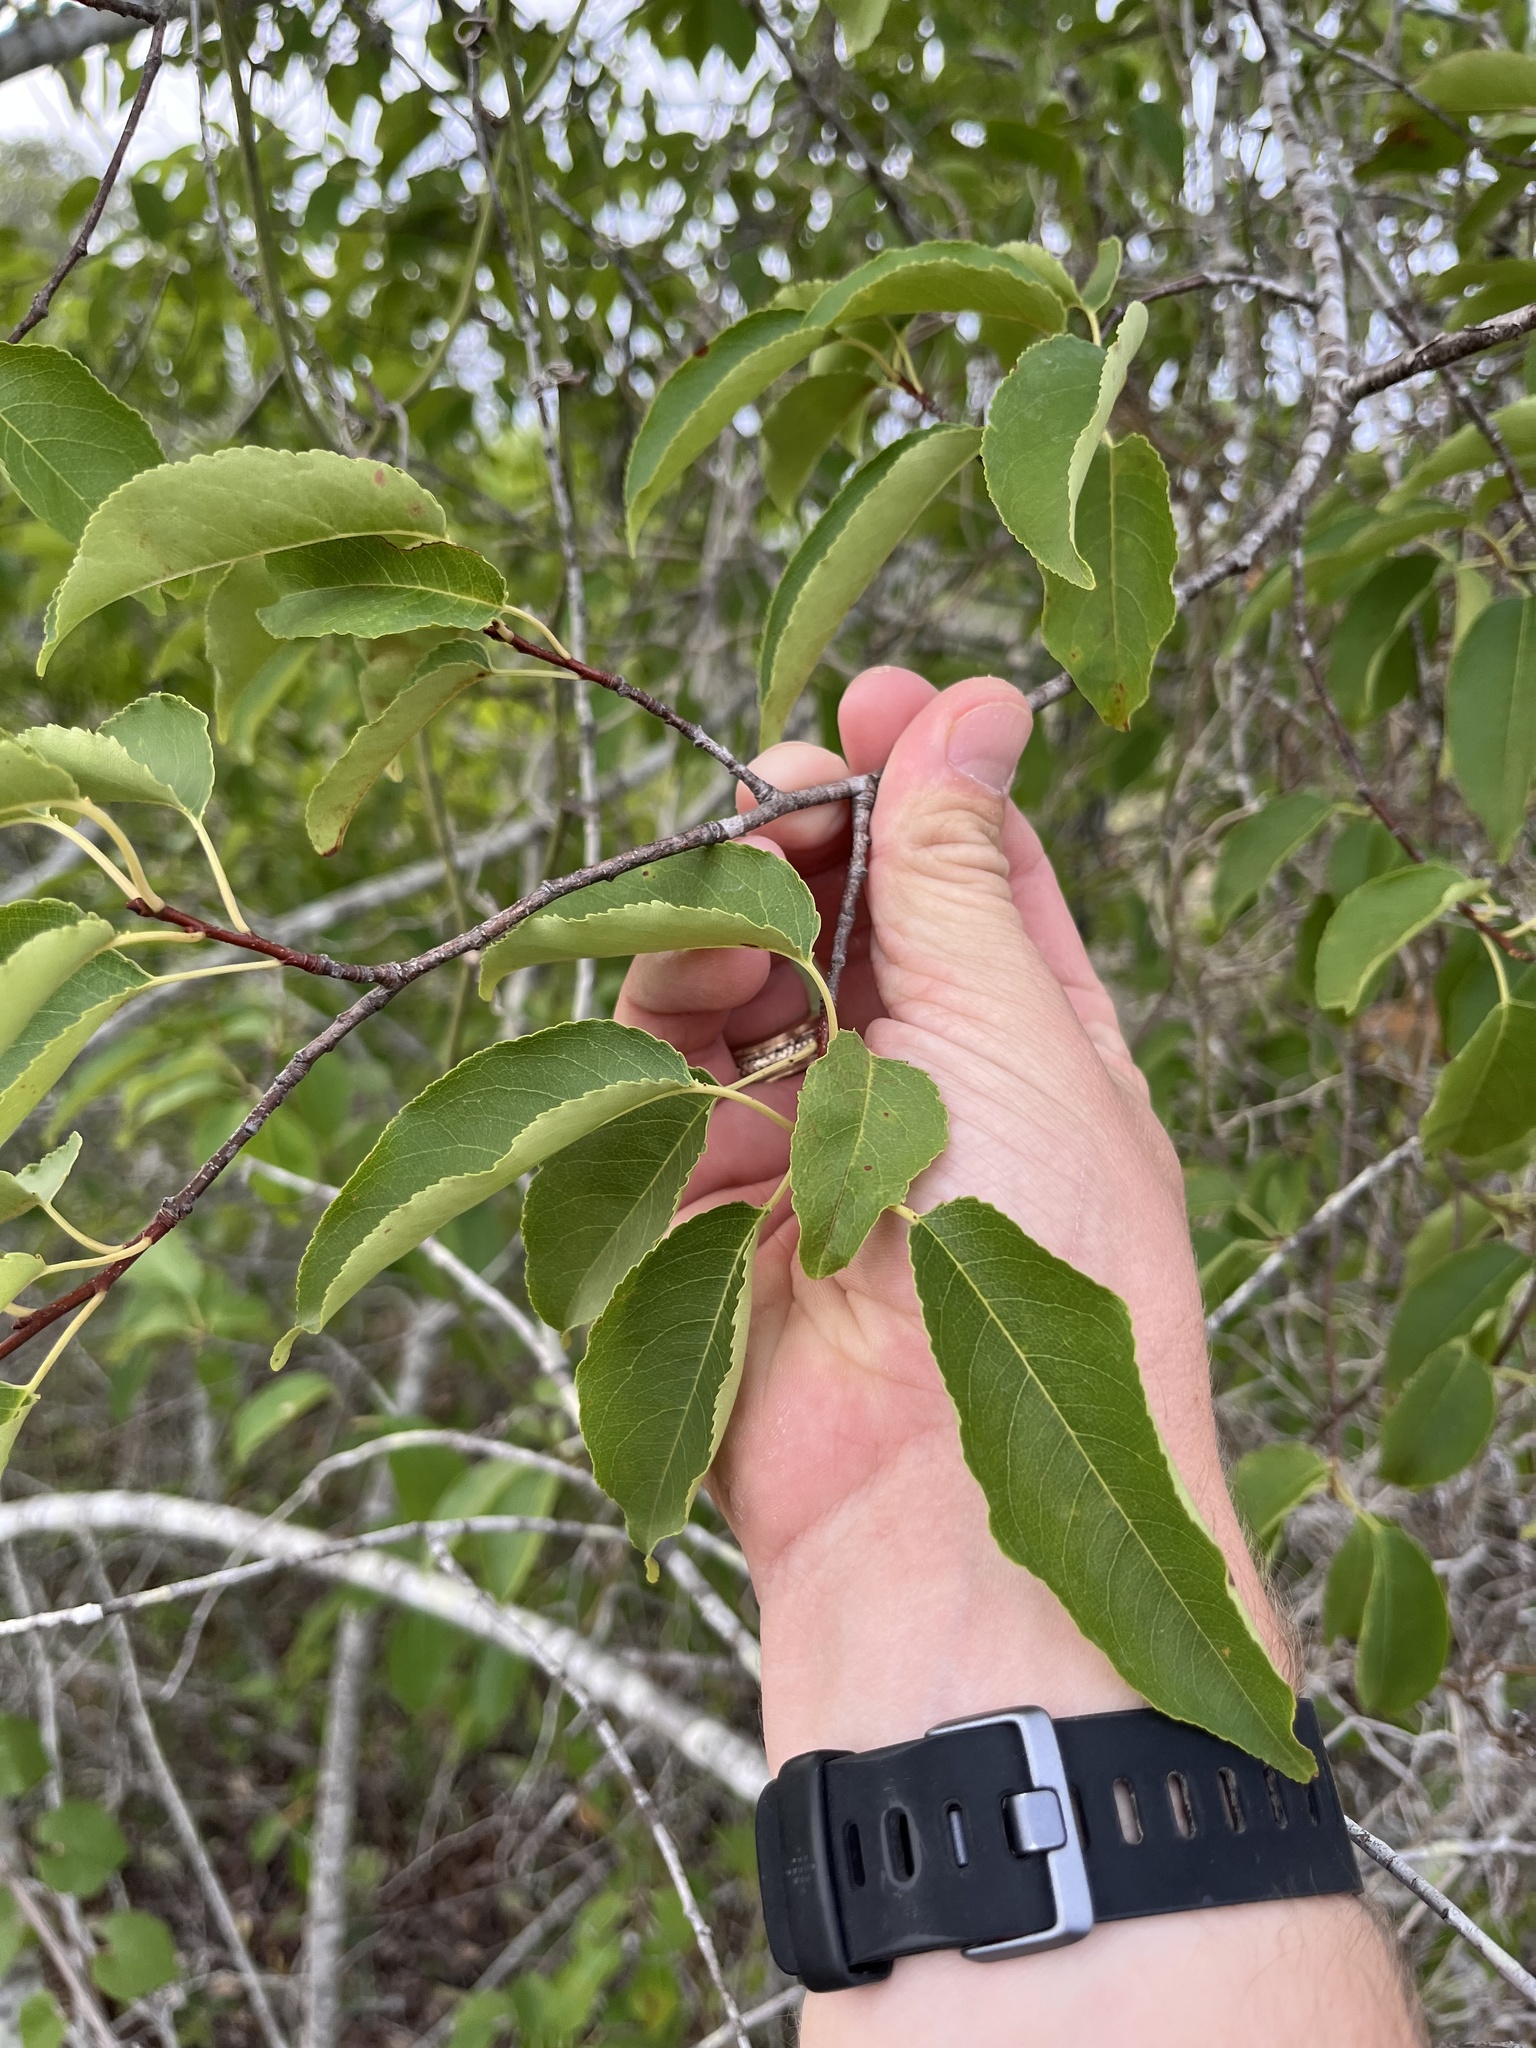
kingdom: Plantae
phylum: Tracheophyta
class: Magnoliopsida
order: Rosales
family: Rosaceae
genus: Prunus
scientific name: Prunus serotina
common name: Black cherry
